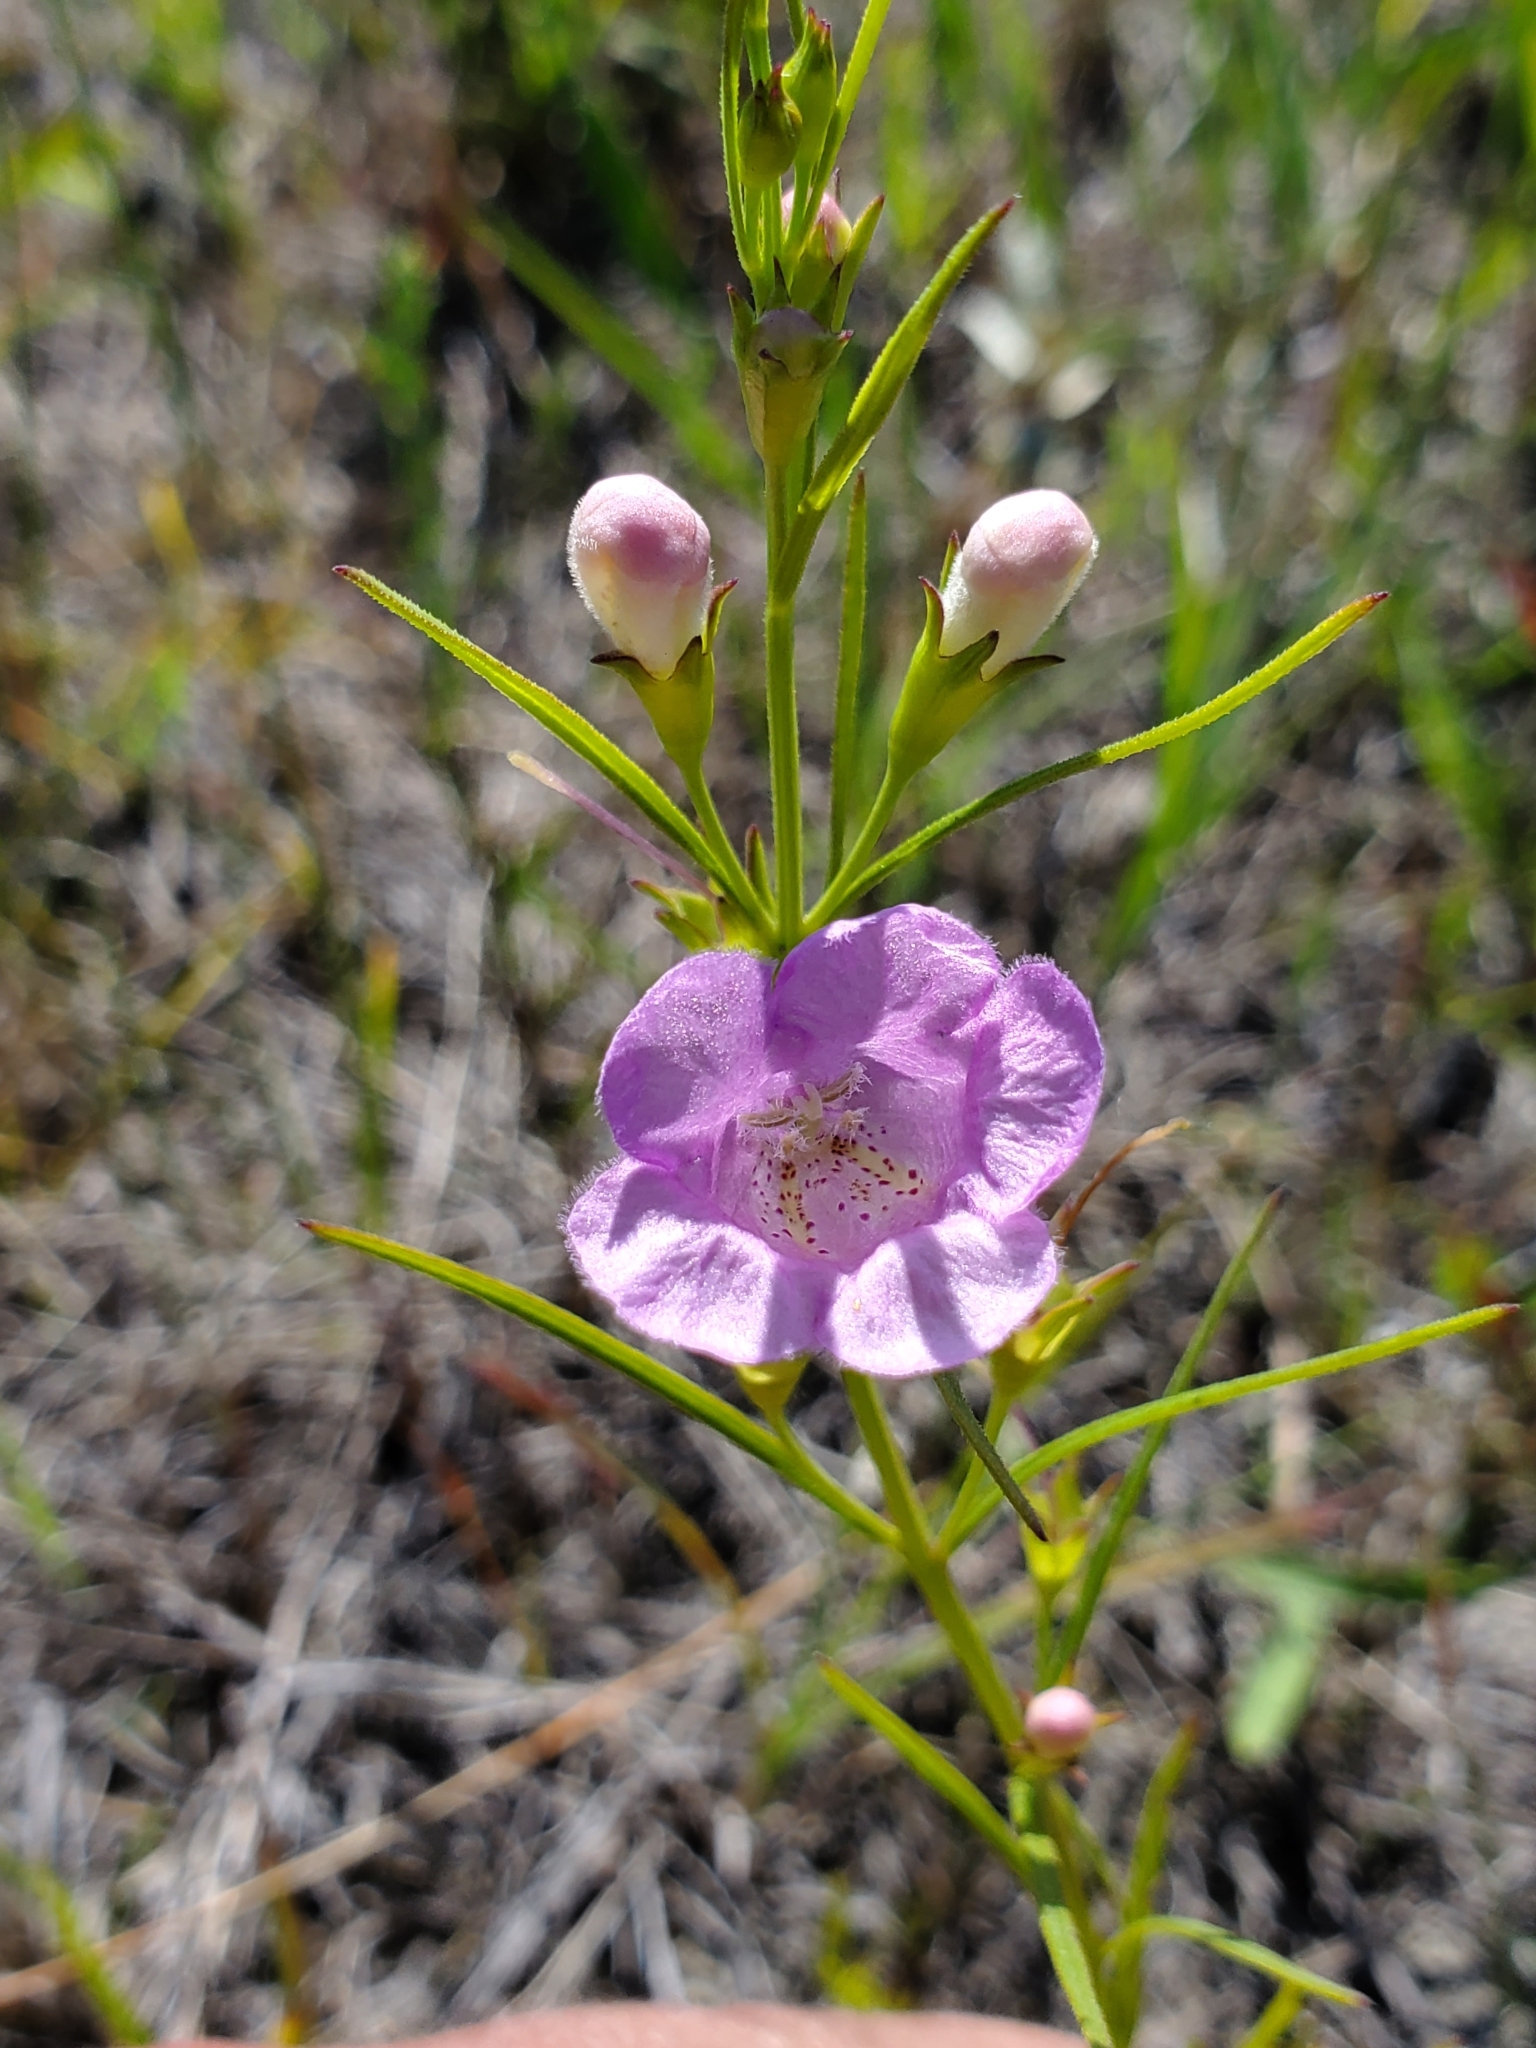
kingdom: Plantae
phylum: Tracheophyta
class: Magnoliopsida
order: Lamiales
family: Orobanchaceae
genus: Agalinis
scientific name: Agalinis aspera
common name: Rough agalinis
